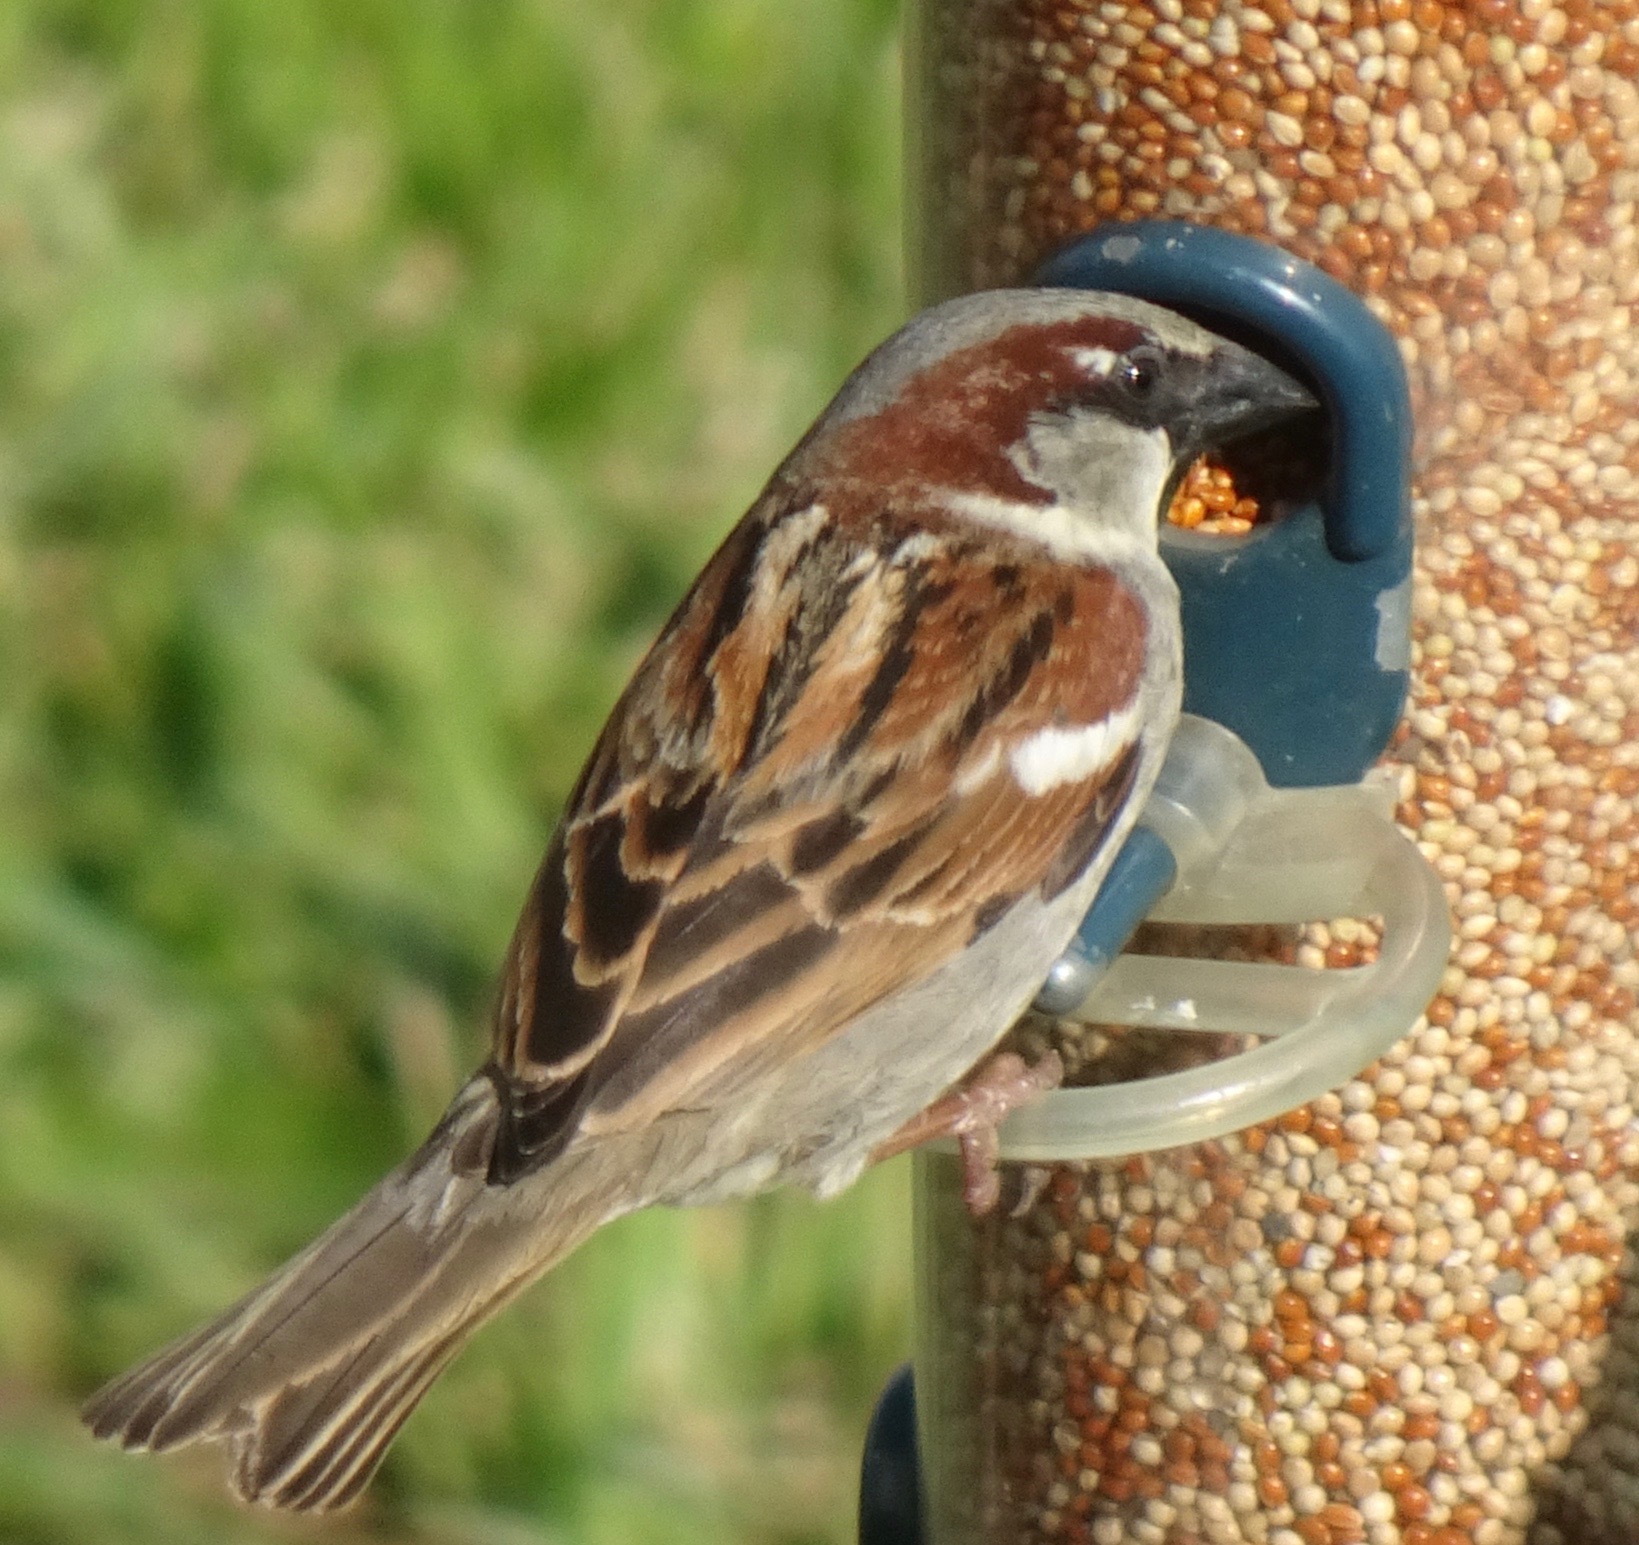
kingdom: Animalia
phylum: Chordata
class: Aves
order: Passeriformes
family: Passeridae
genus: Passer
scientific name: Passer domesticus
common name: House sparrow
